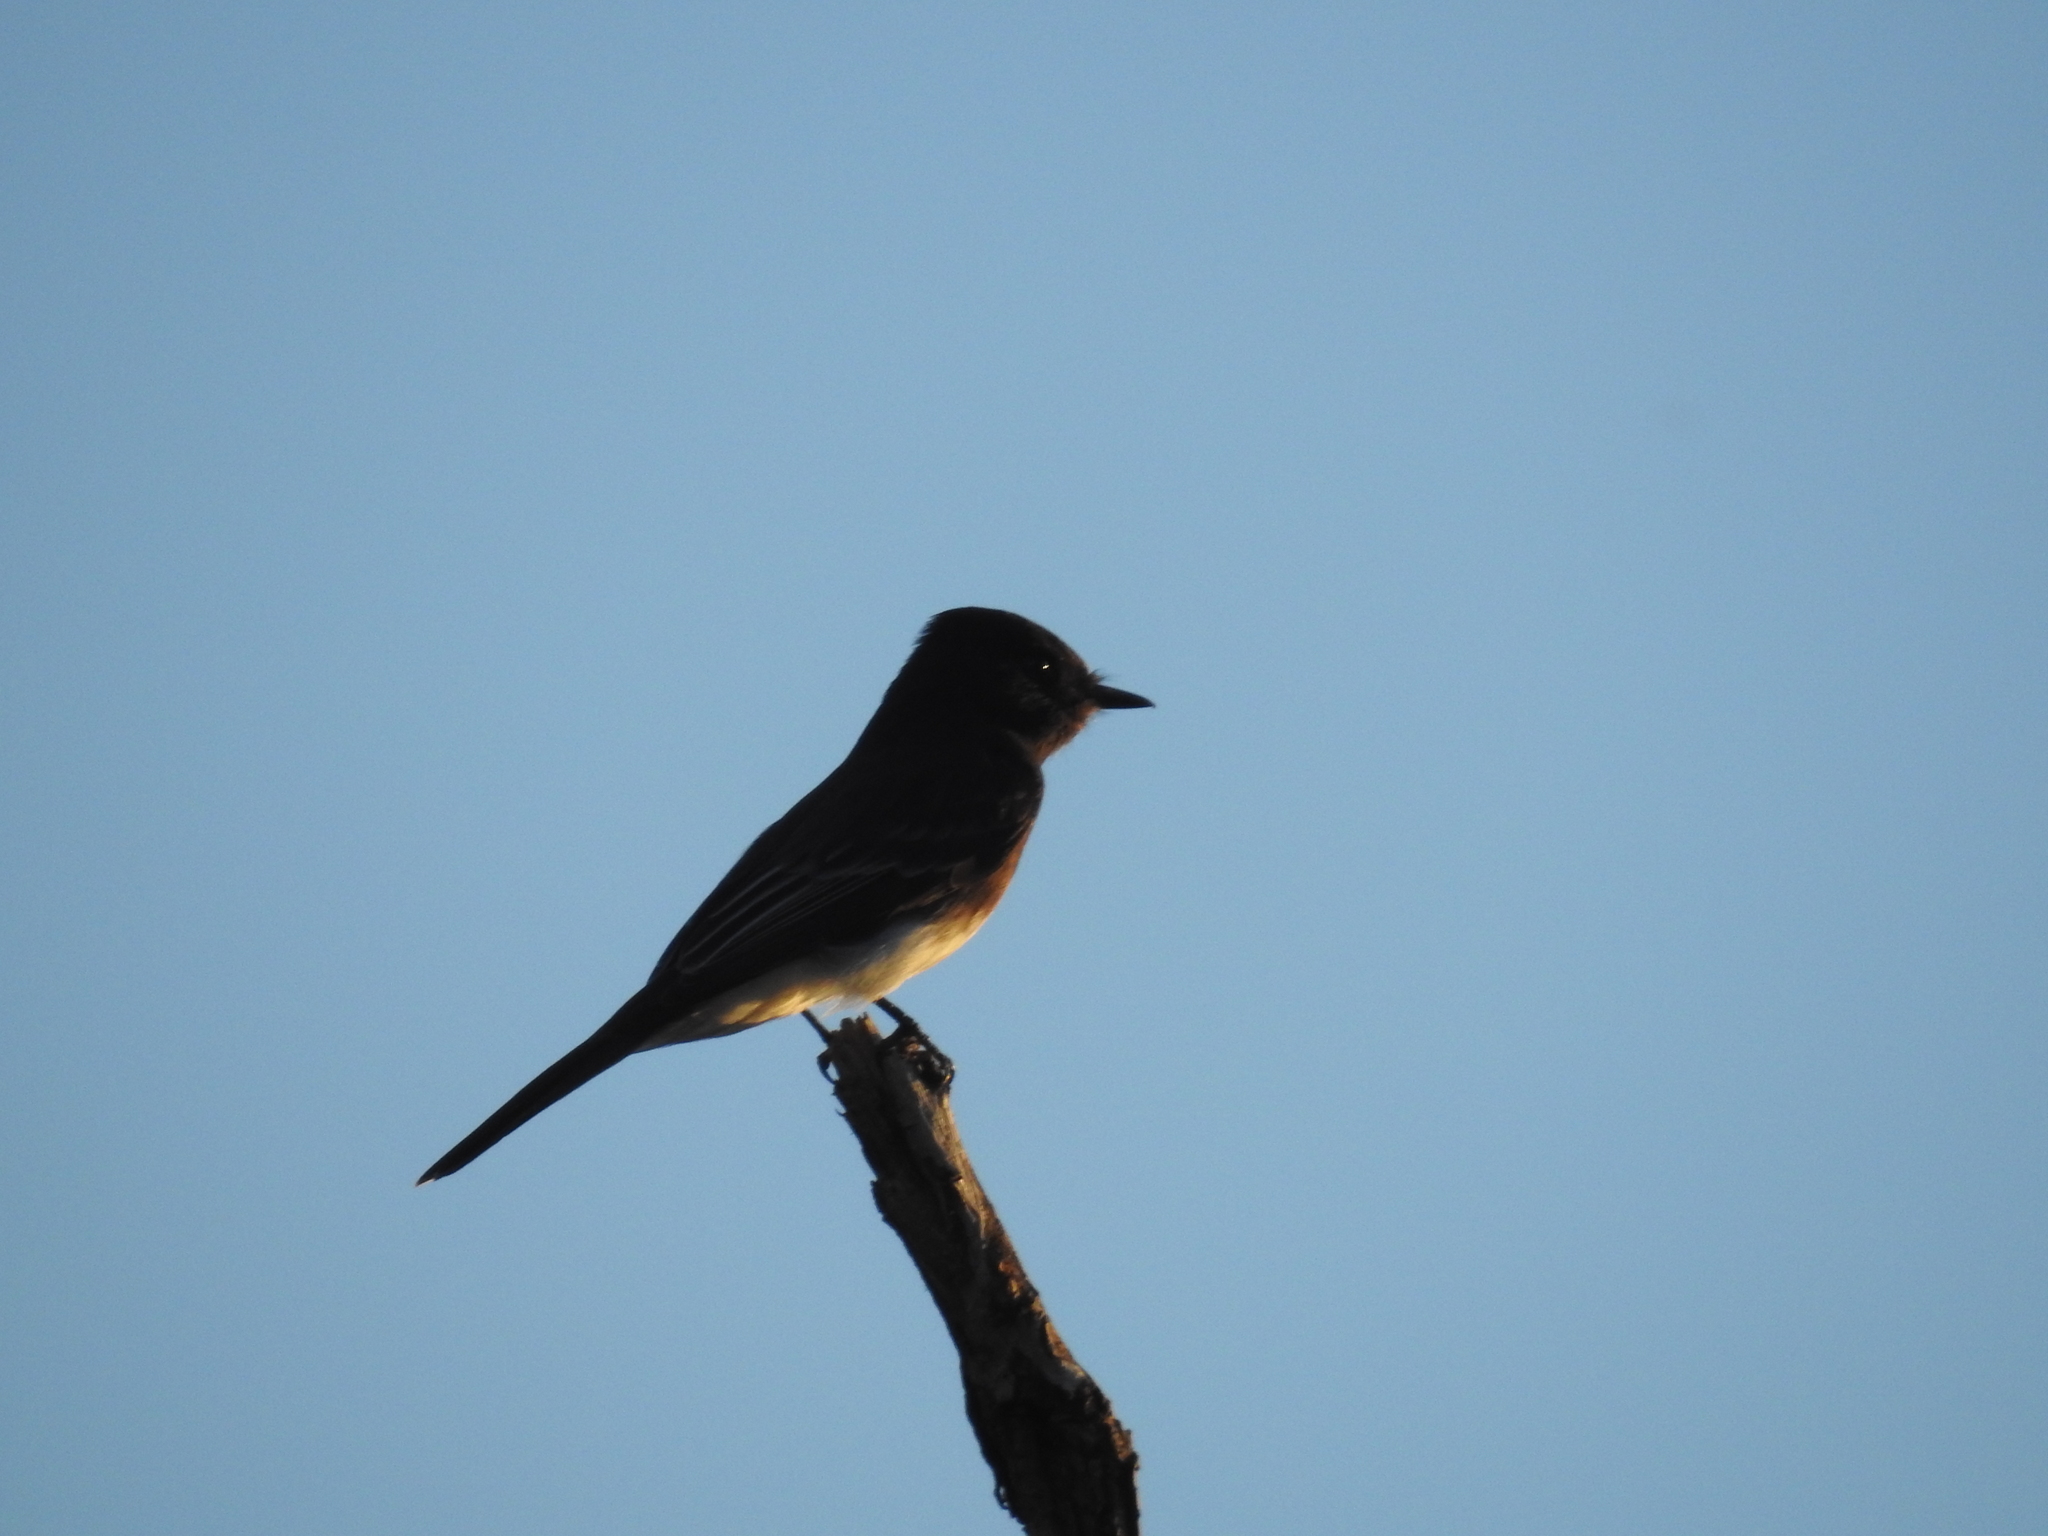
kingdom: Animalia
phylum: Chordata
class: Aves
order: Passeriformes
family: Tyrannidae
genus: Sayornis
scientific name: Sayornis nigricans
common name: Black phoebe
